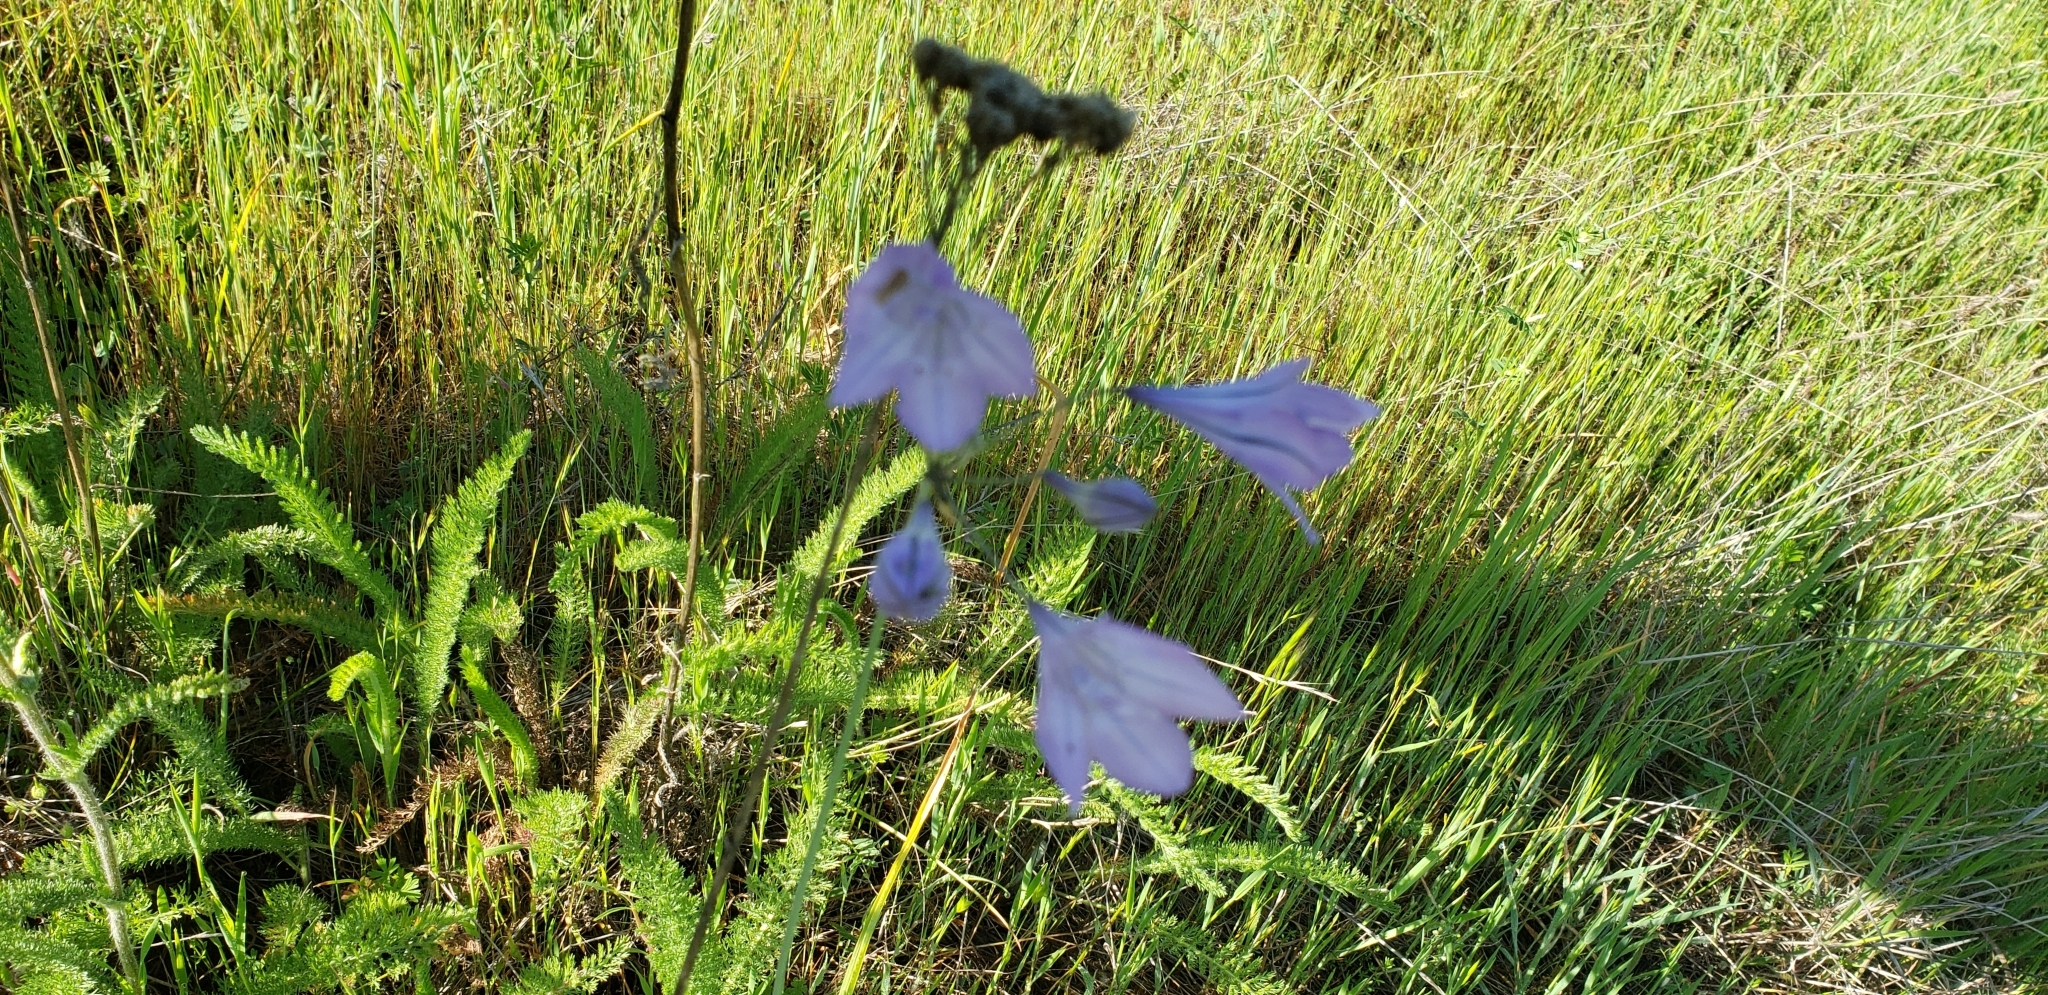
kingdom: Plantae
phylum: Tracheophyta
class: Liliopsida
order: Asparagales
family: Asparagaceae
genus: Triteleia
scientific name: Triteleia laxa
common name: Triplet-lily
